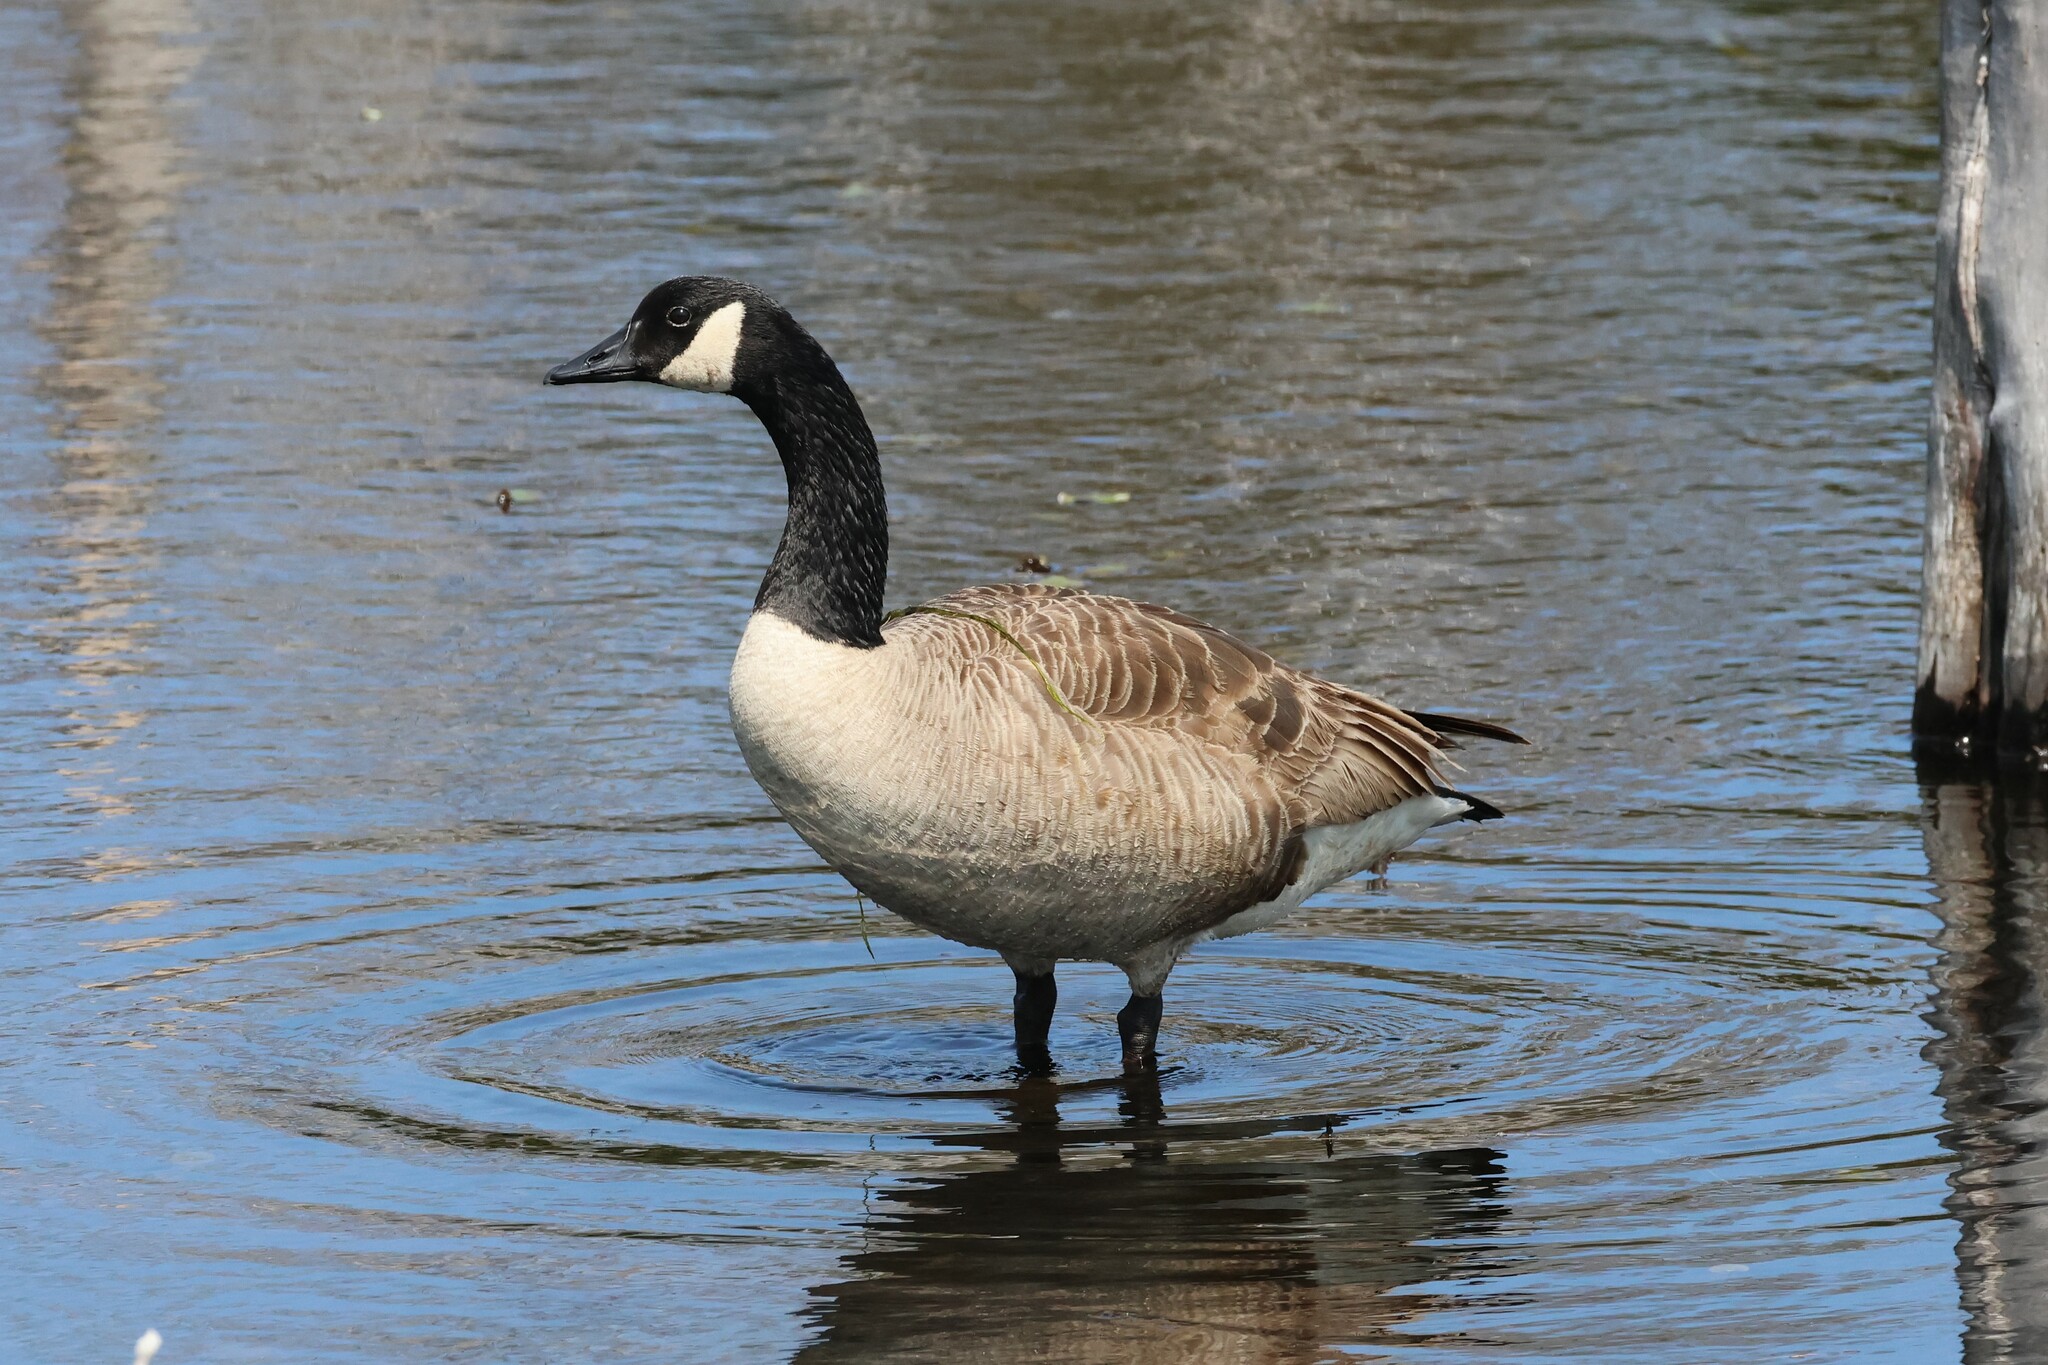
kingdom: Animalia
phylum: Chordata
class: Aves
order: Anseriformes
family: Anatidae
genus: Branta
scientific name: Branta canadensis
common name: Canada goose
